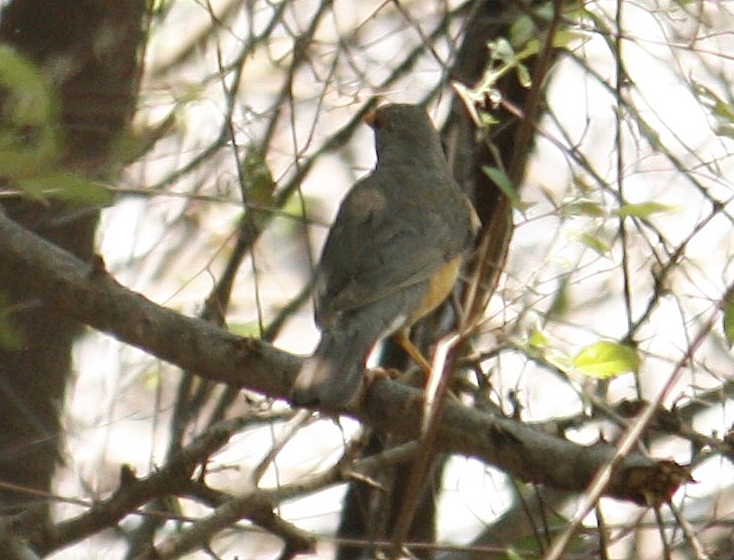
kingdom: Animalia
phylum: Chordata
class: Aves
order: Passeriformes
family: Turdidae
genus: Turdus
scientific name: Turdus libonyana
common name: Kurrichane thrush
